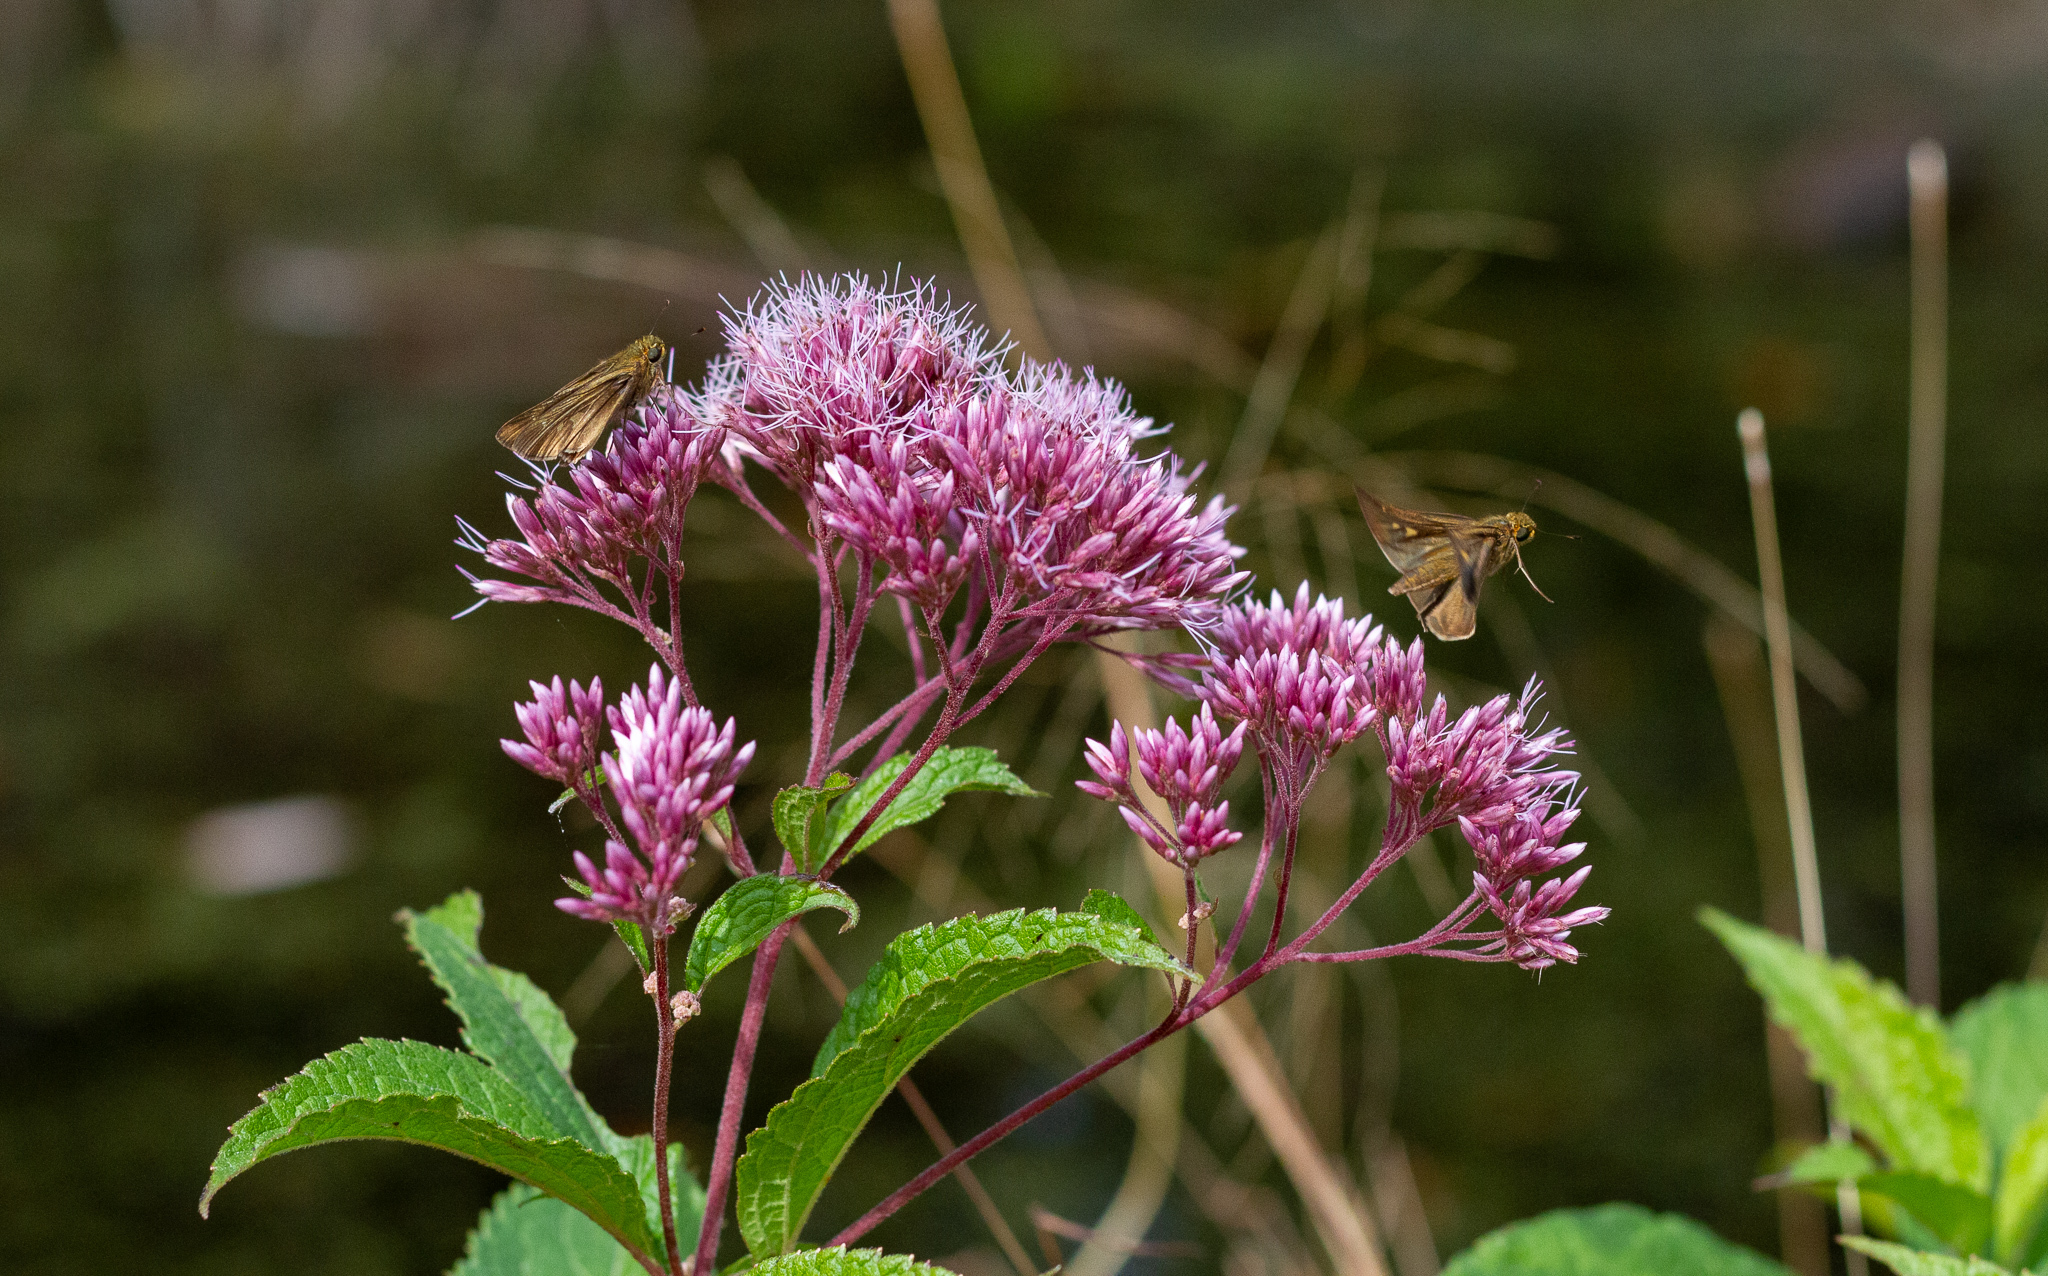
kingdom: Animalia
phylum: Arthropoda
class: Insecta
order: Lepidoptera
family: Hesperiidae
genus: Panoquina
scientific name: Panoquina ocola
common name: Ocola skipper
